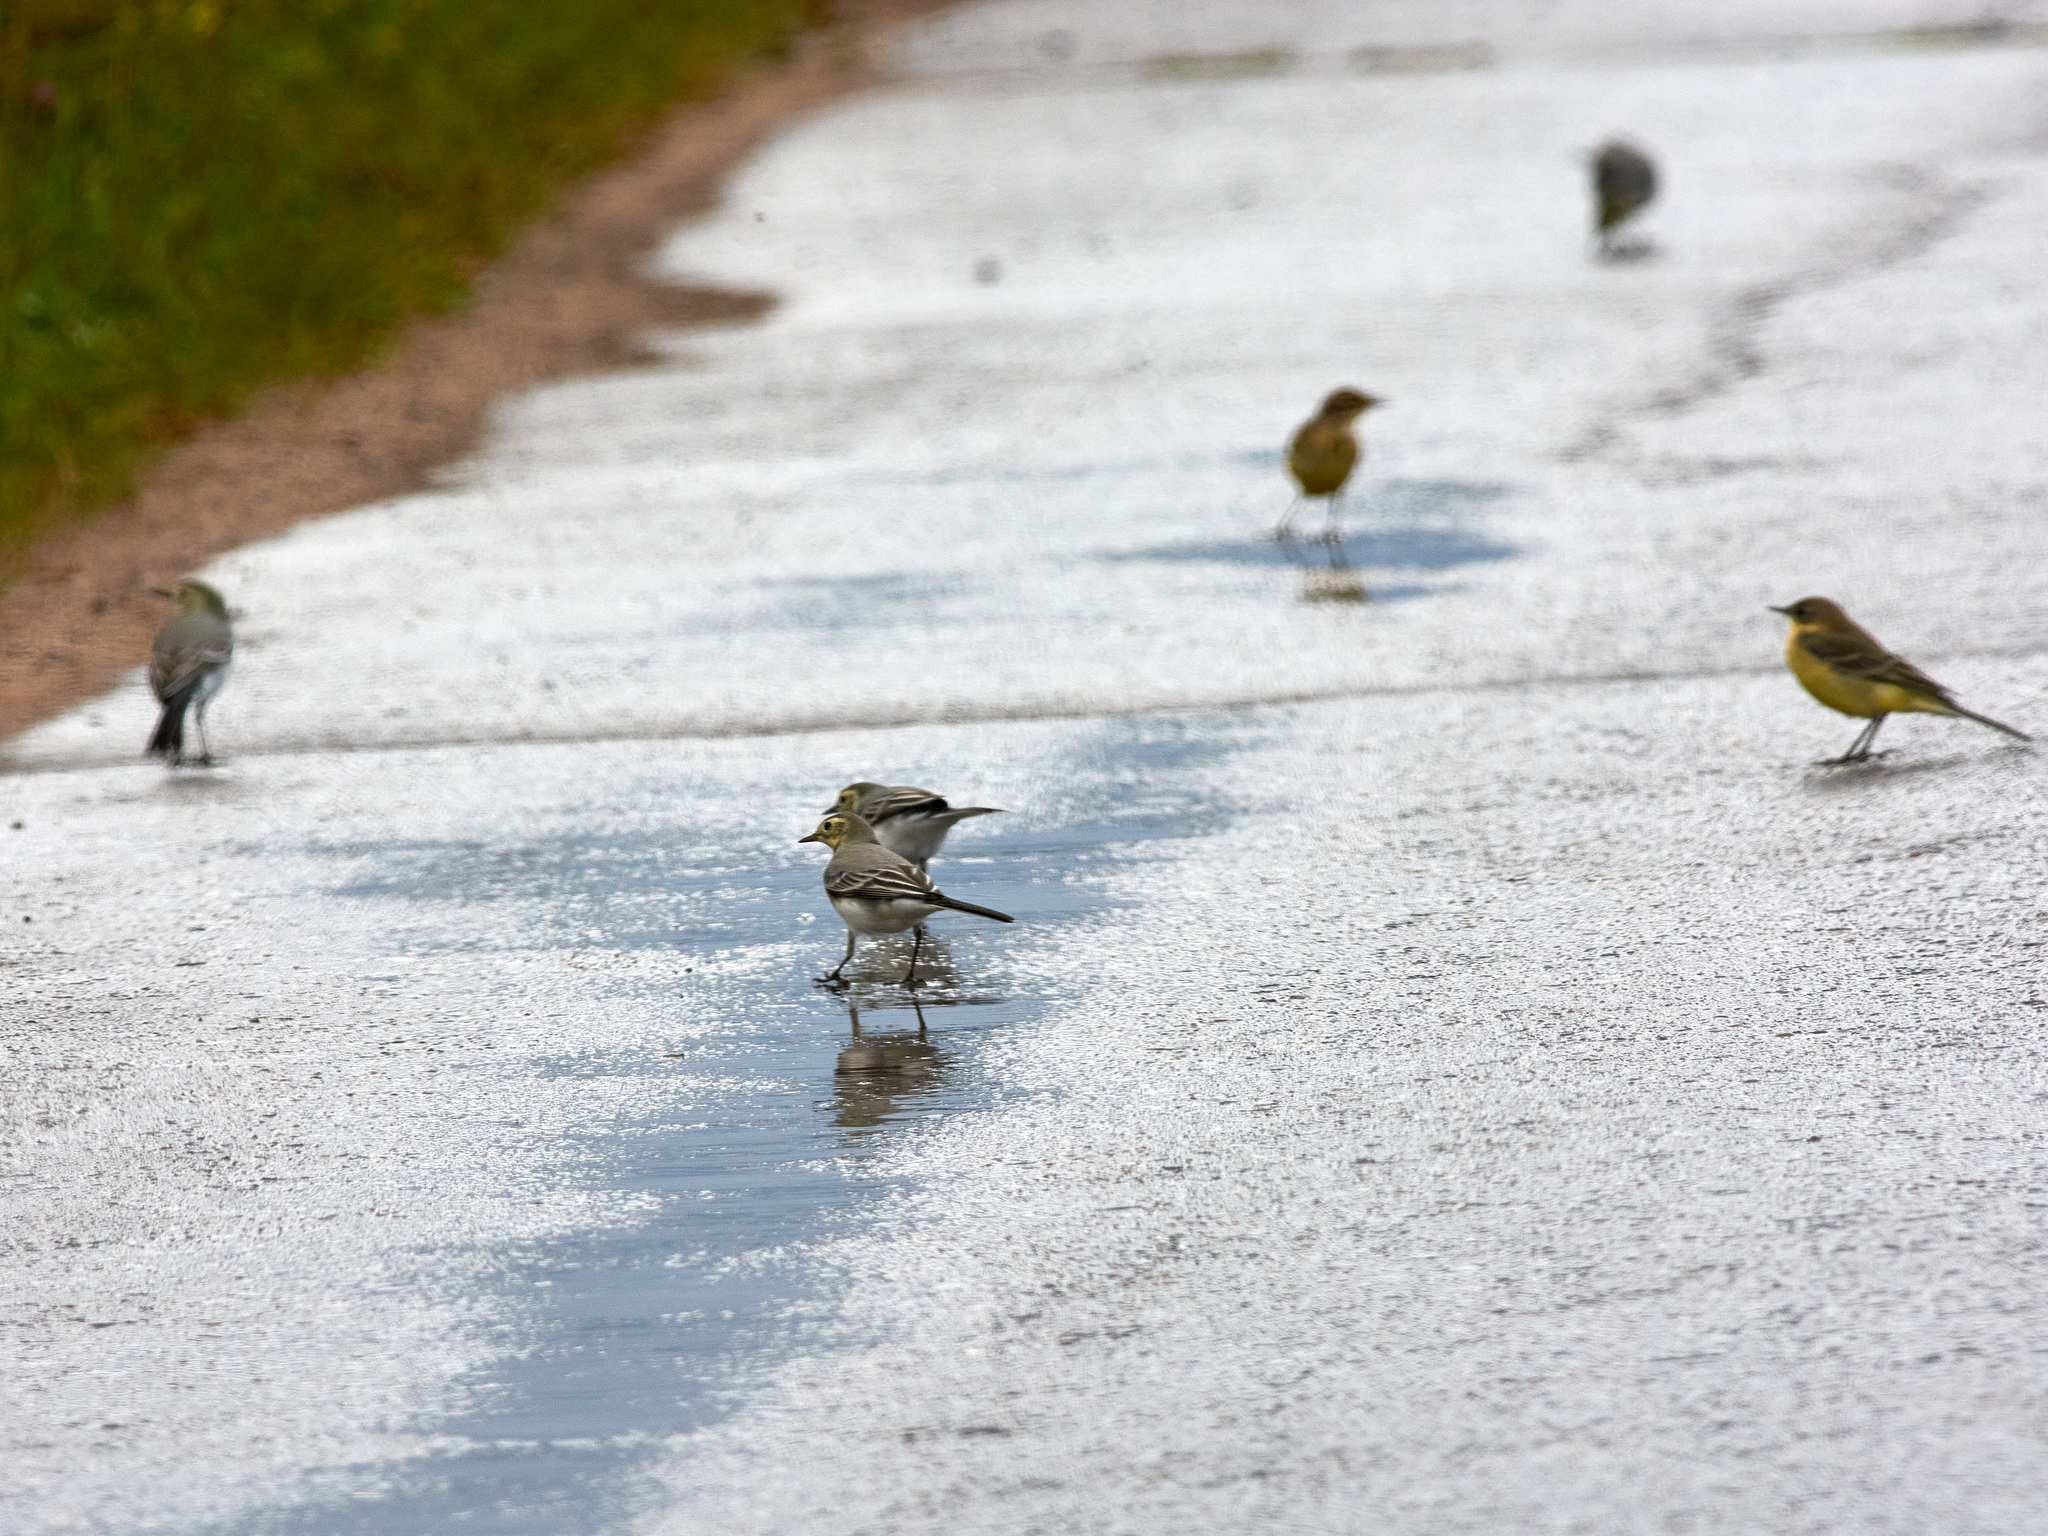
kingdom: Animalia
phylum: Chordata
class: Aves
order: Passeriformes
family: Motacillidae
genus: Motacilla
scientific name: Motacilla flava
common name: Western yellow wagtail
